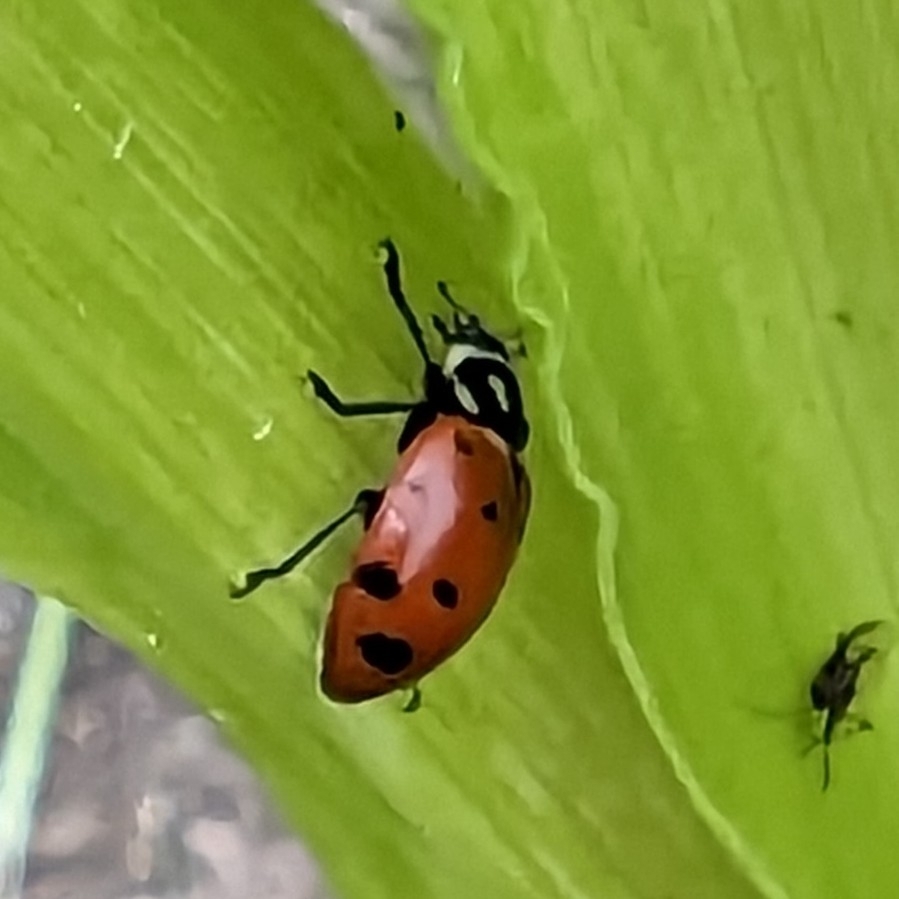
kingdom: Animalia
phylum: Arthropoda
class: Insecta
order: Coleoptera
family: Coccinellidae
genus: Hippodamia
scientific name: Hippodamia convergens
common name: Convergent lady beetle
